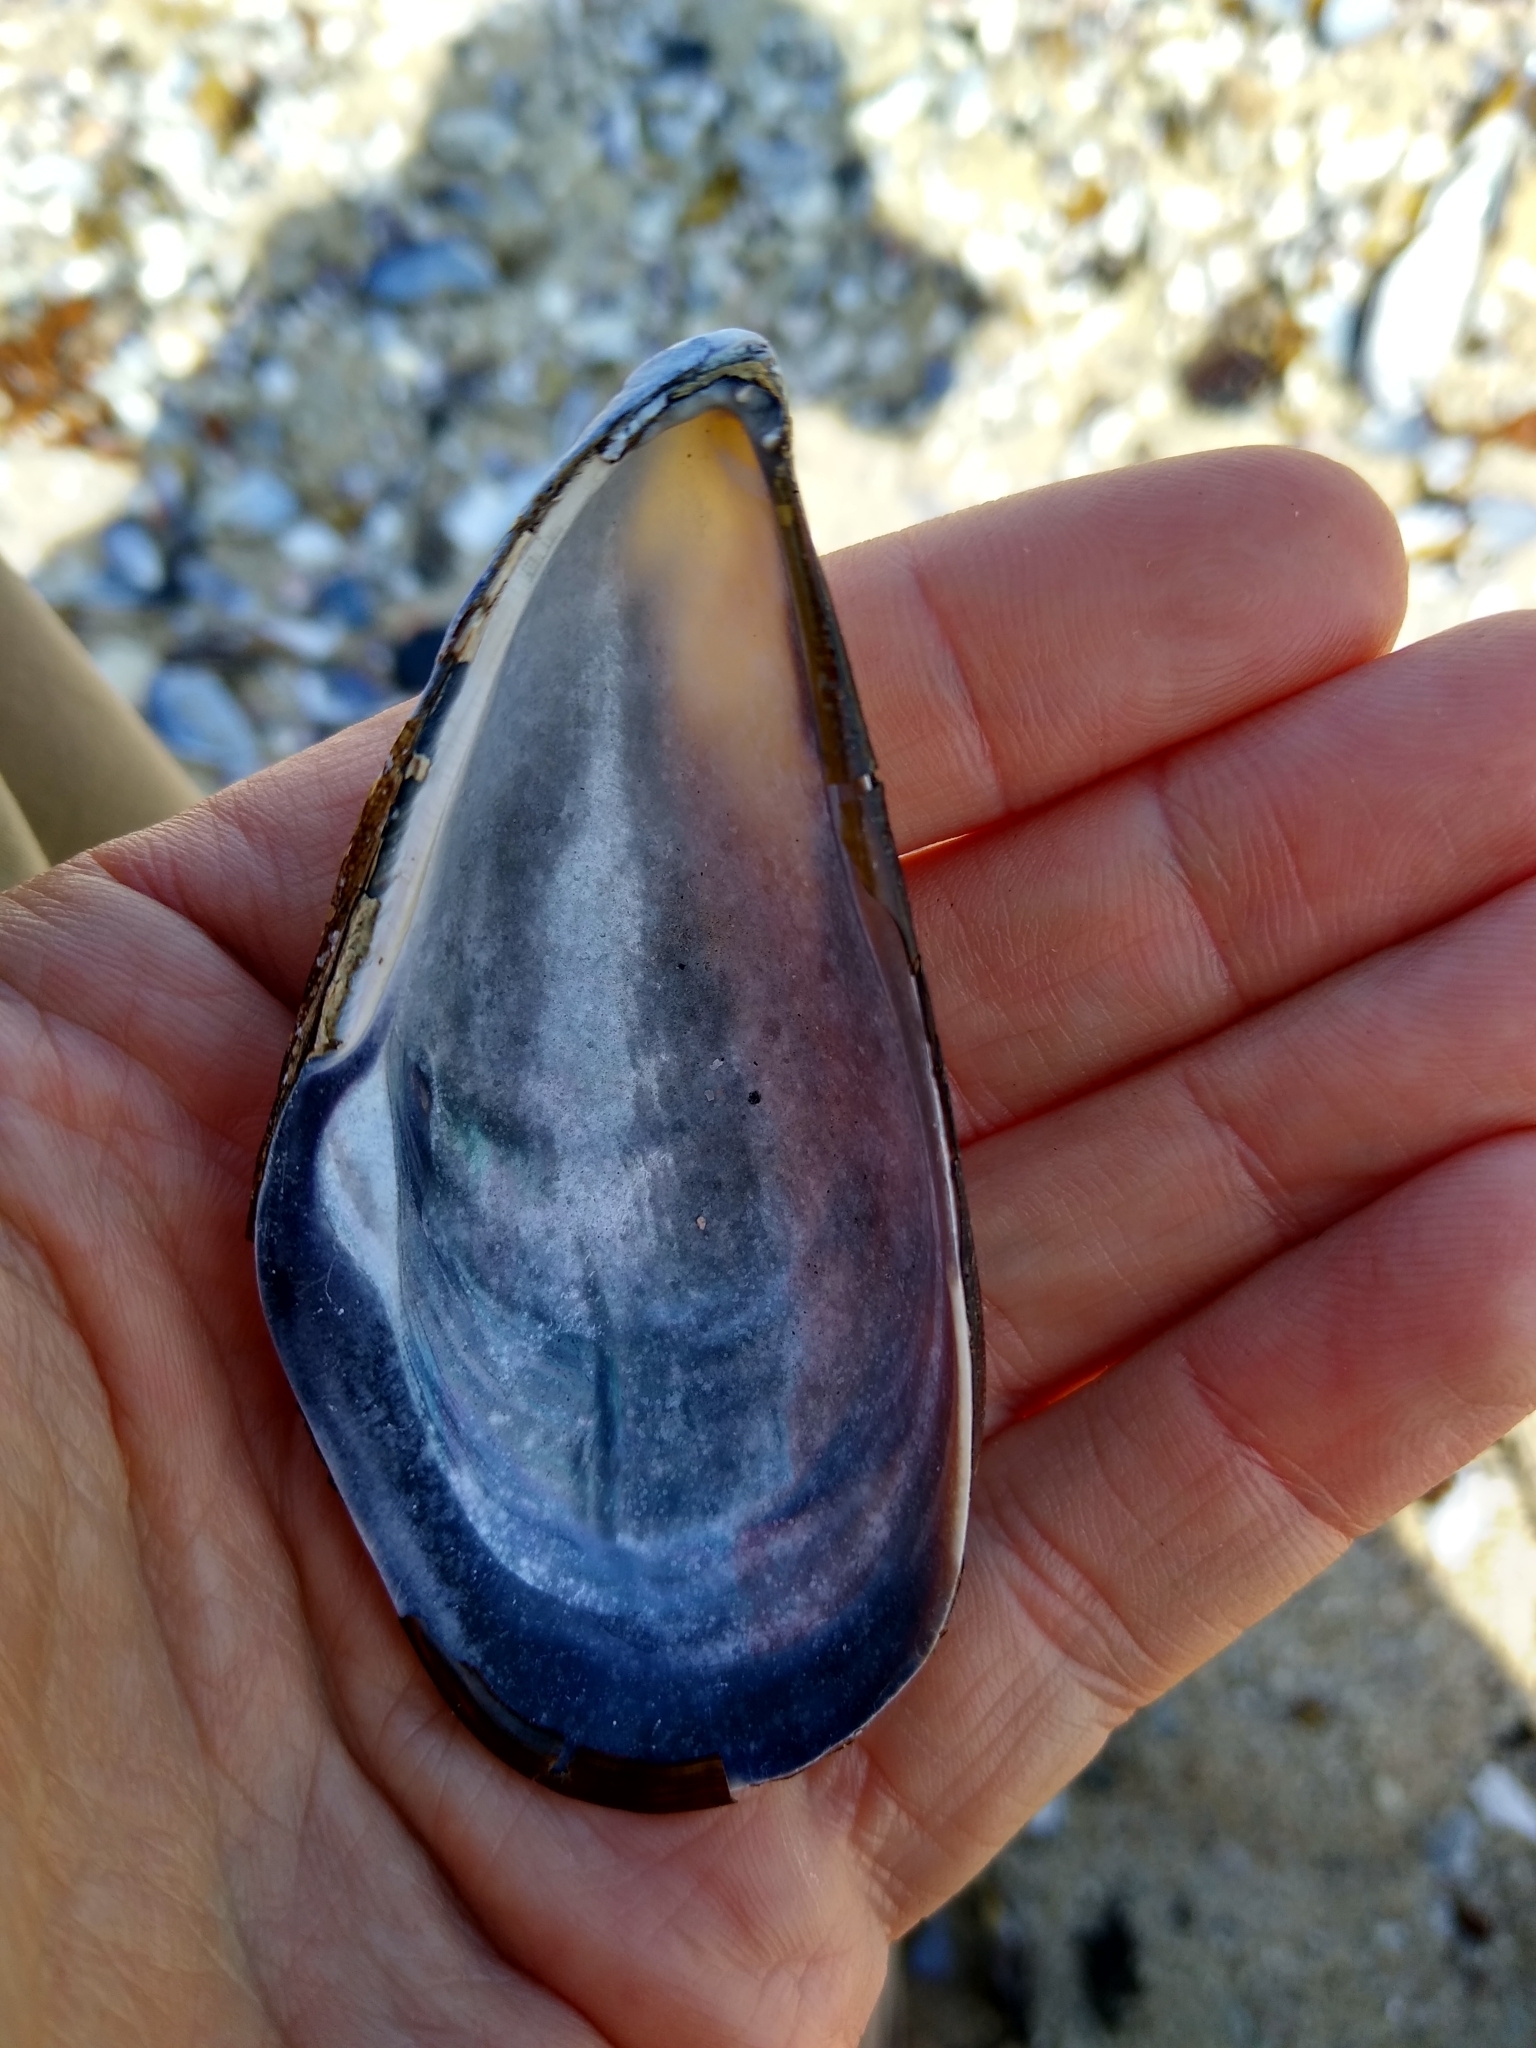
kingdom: Animalia
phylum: Mollusca
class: Bivalvia
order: Mytilida
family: Mytilidae
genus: Mytilus
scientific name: Mytilus californianus
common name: California mussel
